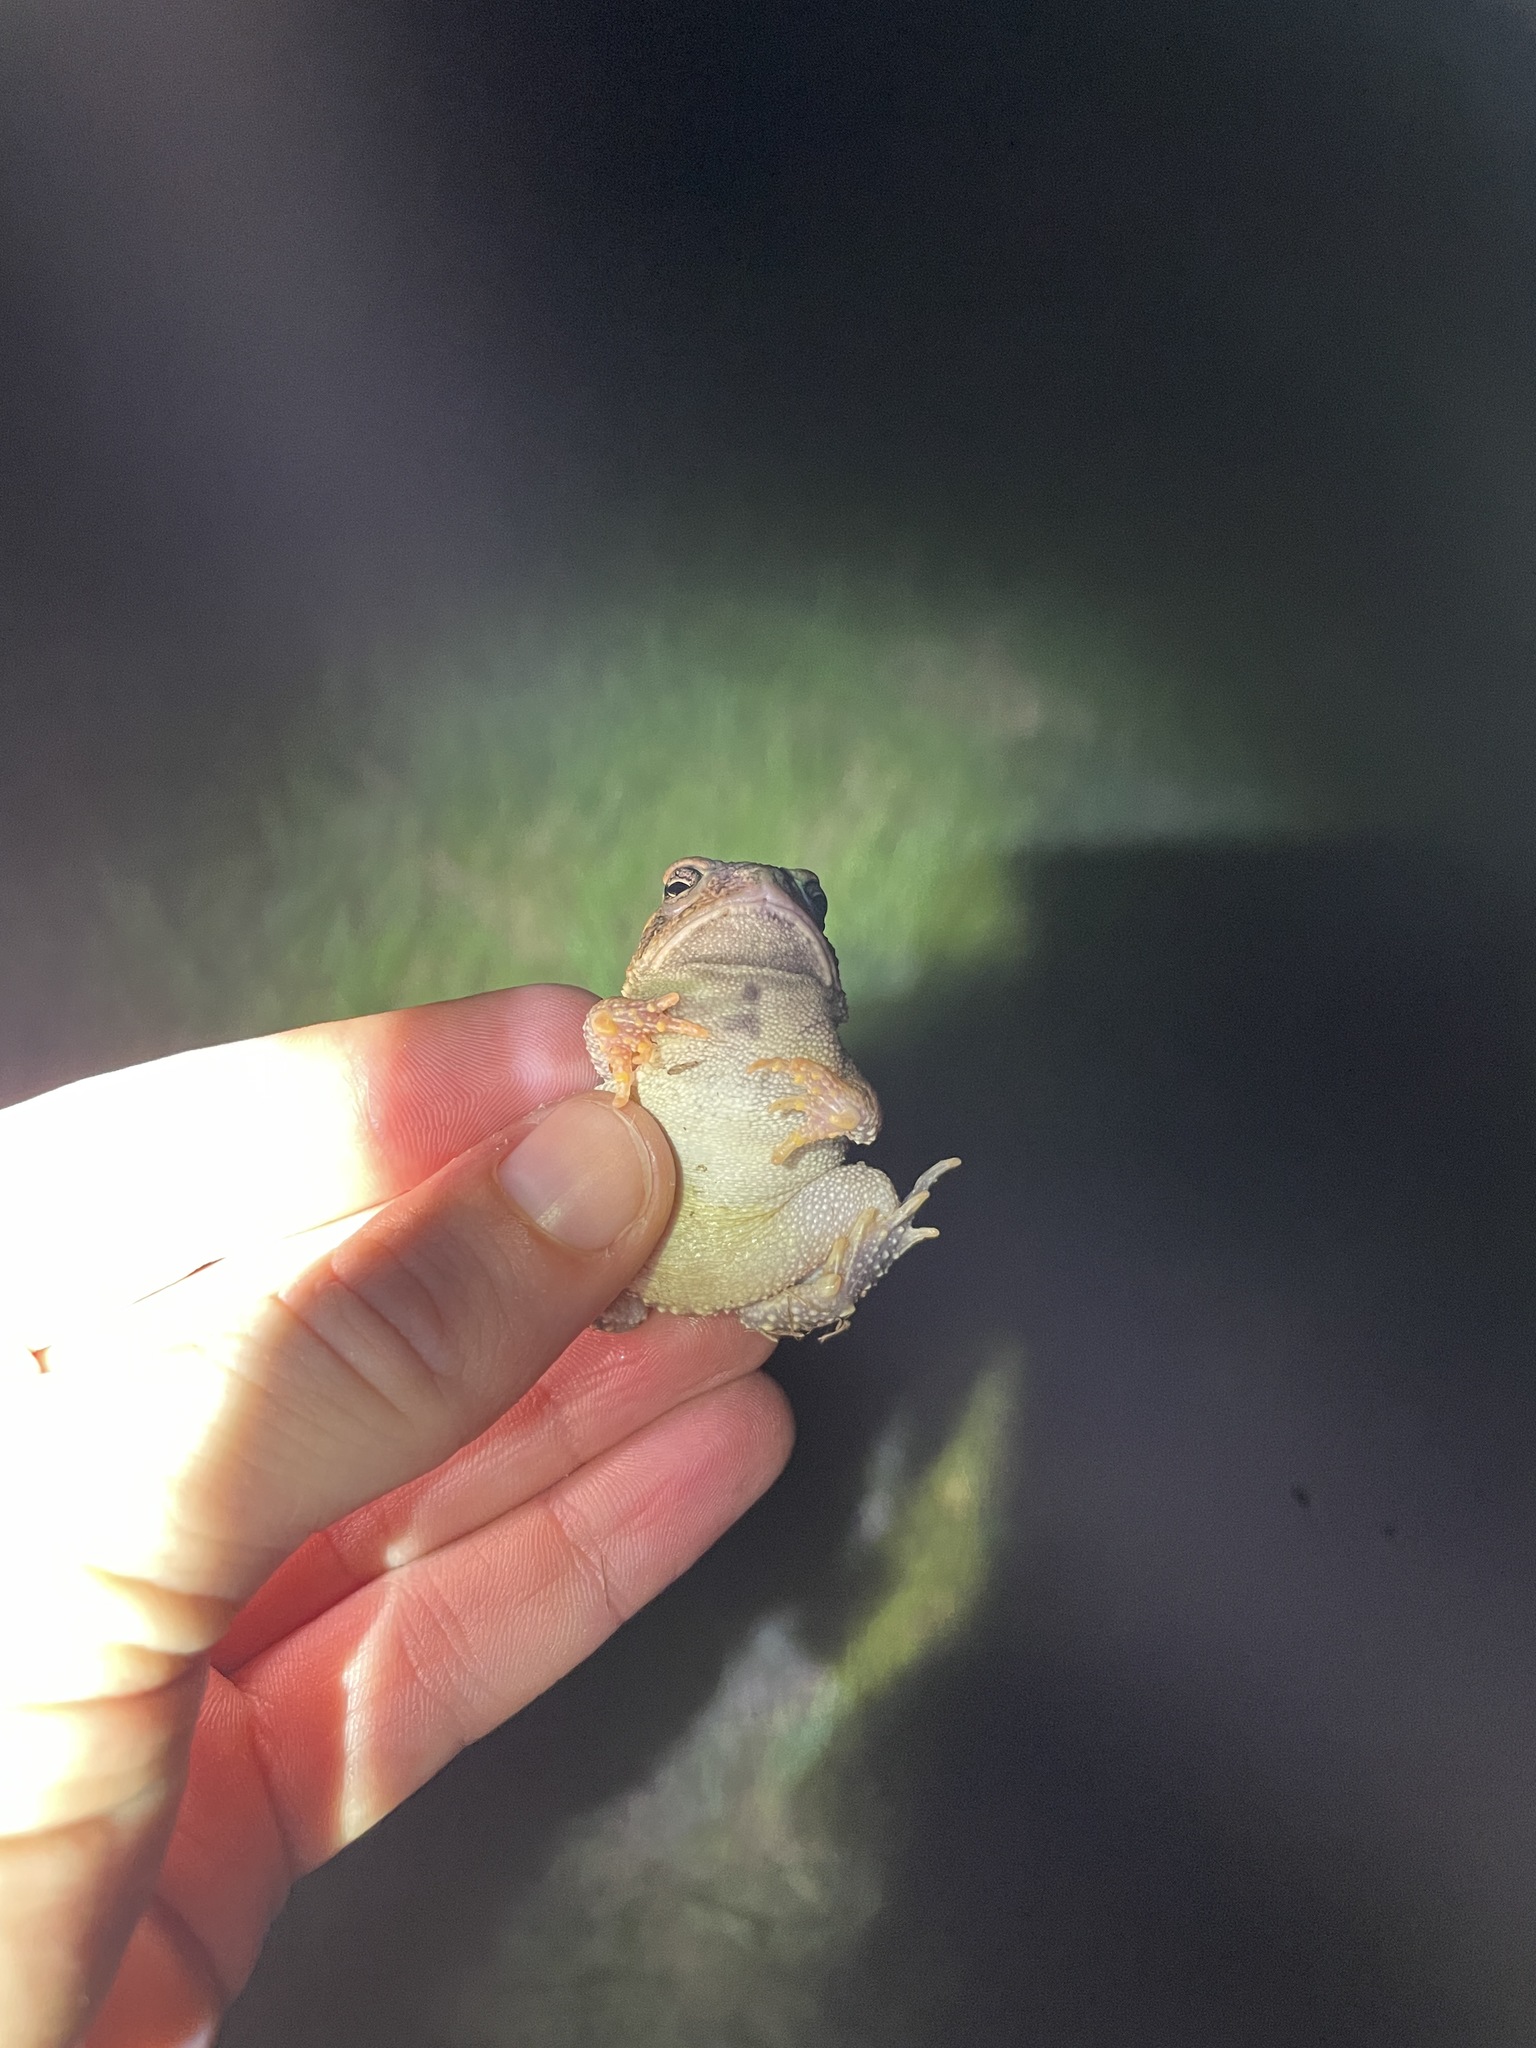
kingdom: Animalia
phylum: Chordata
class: Amphibia
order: Anura
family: Bufonidae
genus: Anaxyrus
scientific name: Anaxyrus fowleri
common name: Fowler's toad
